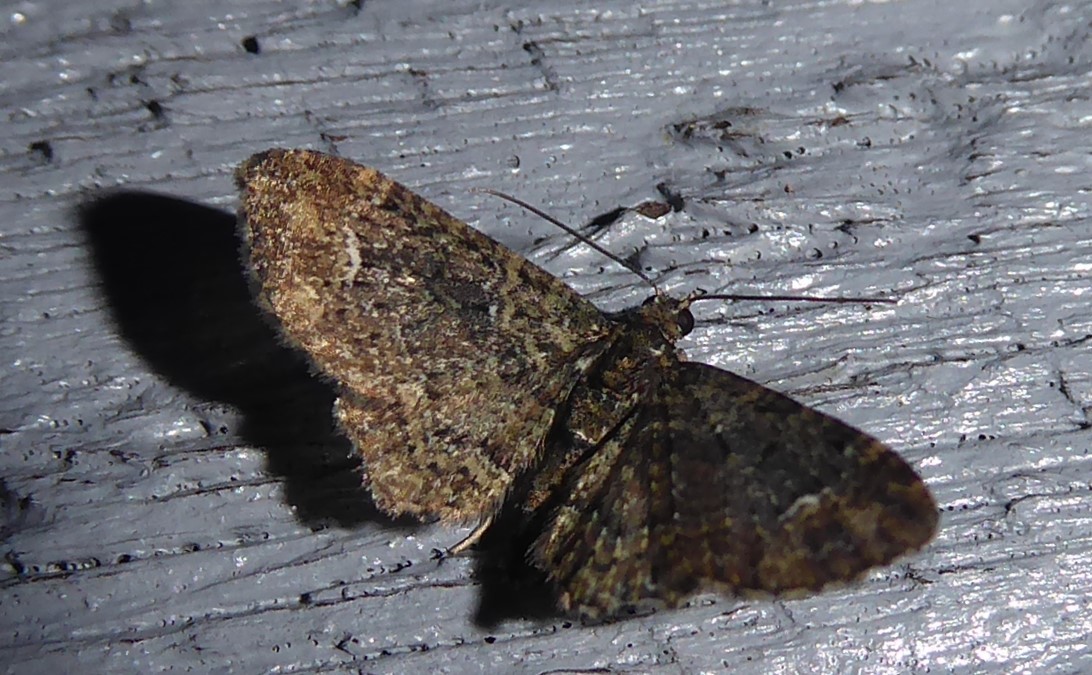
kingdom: Animalia
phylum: Arthropoda
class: Insecta
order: Lepidoptera
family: Geometridae
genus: Pasiphilodes
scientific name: Pasiphilodes testulata
